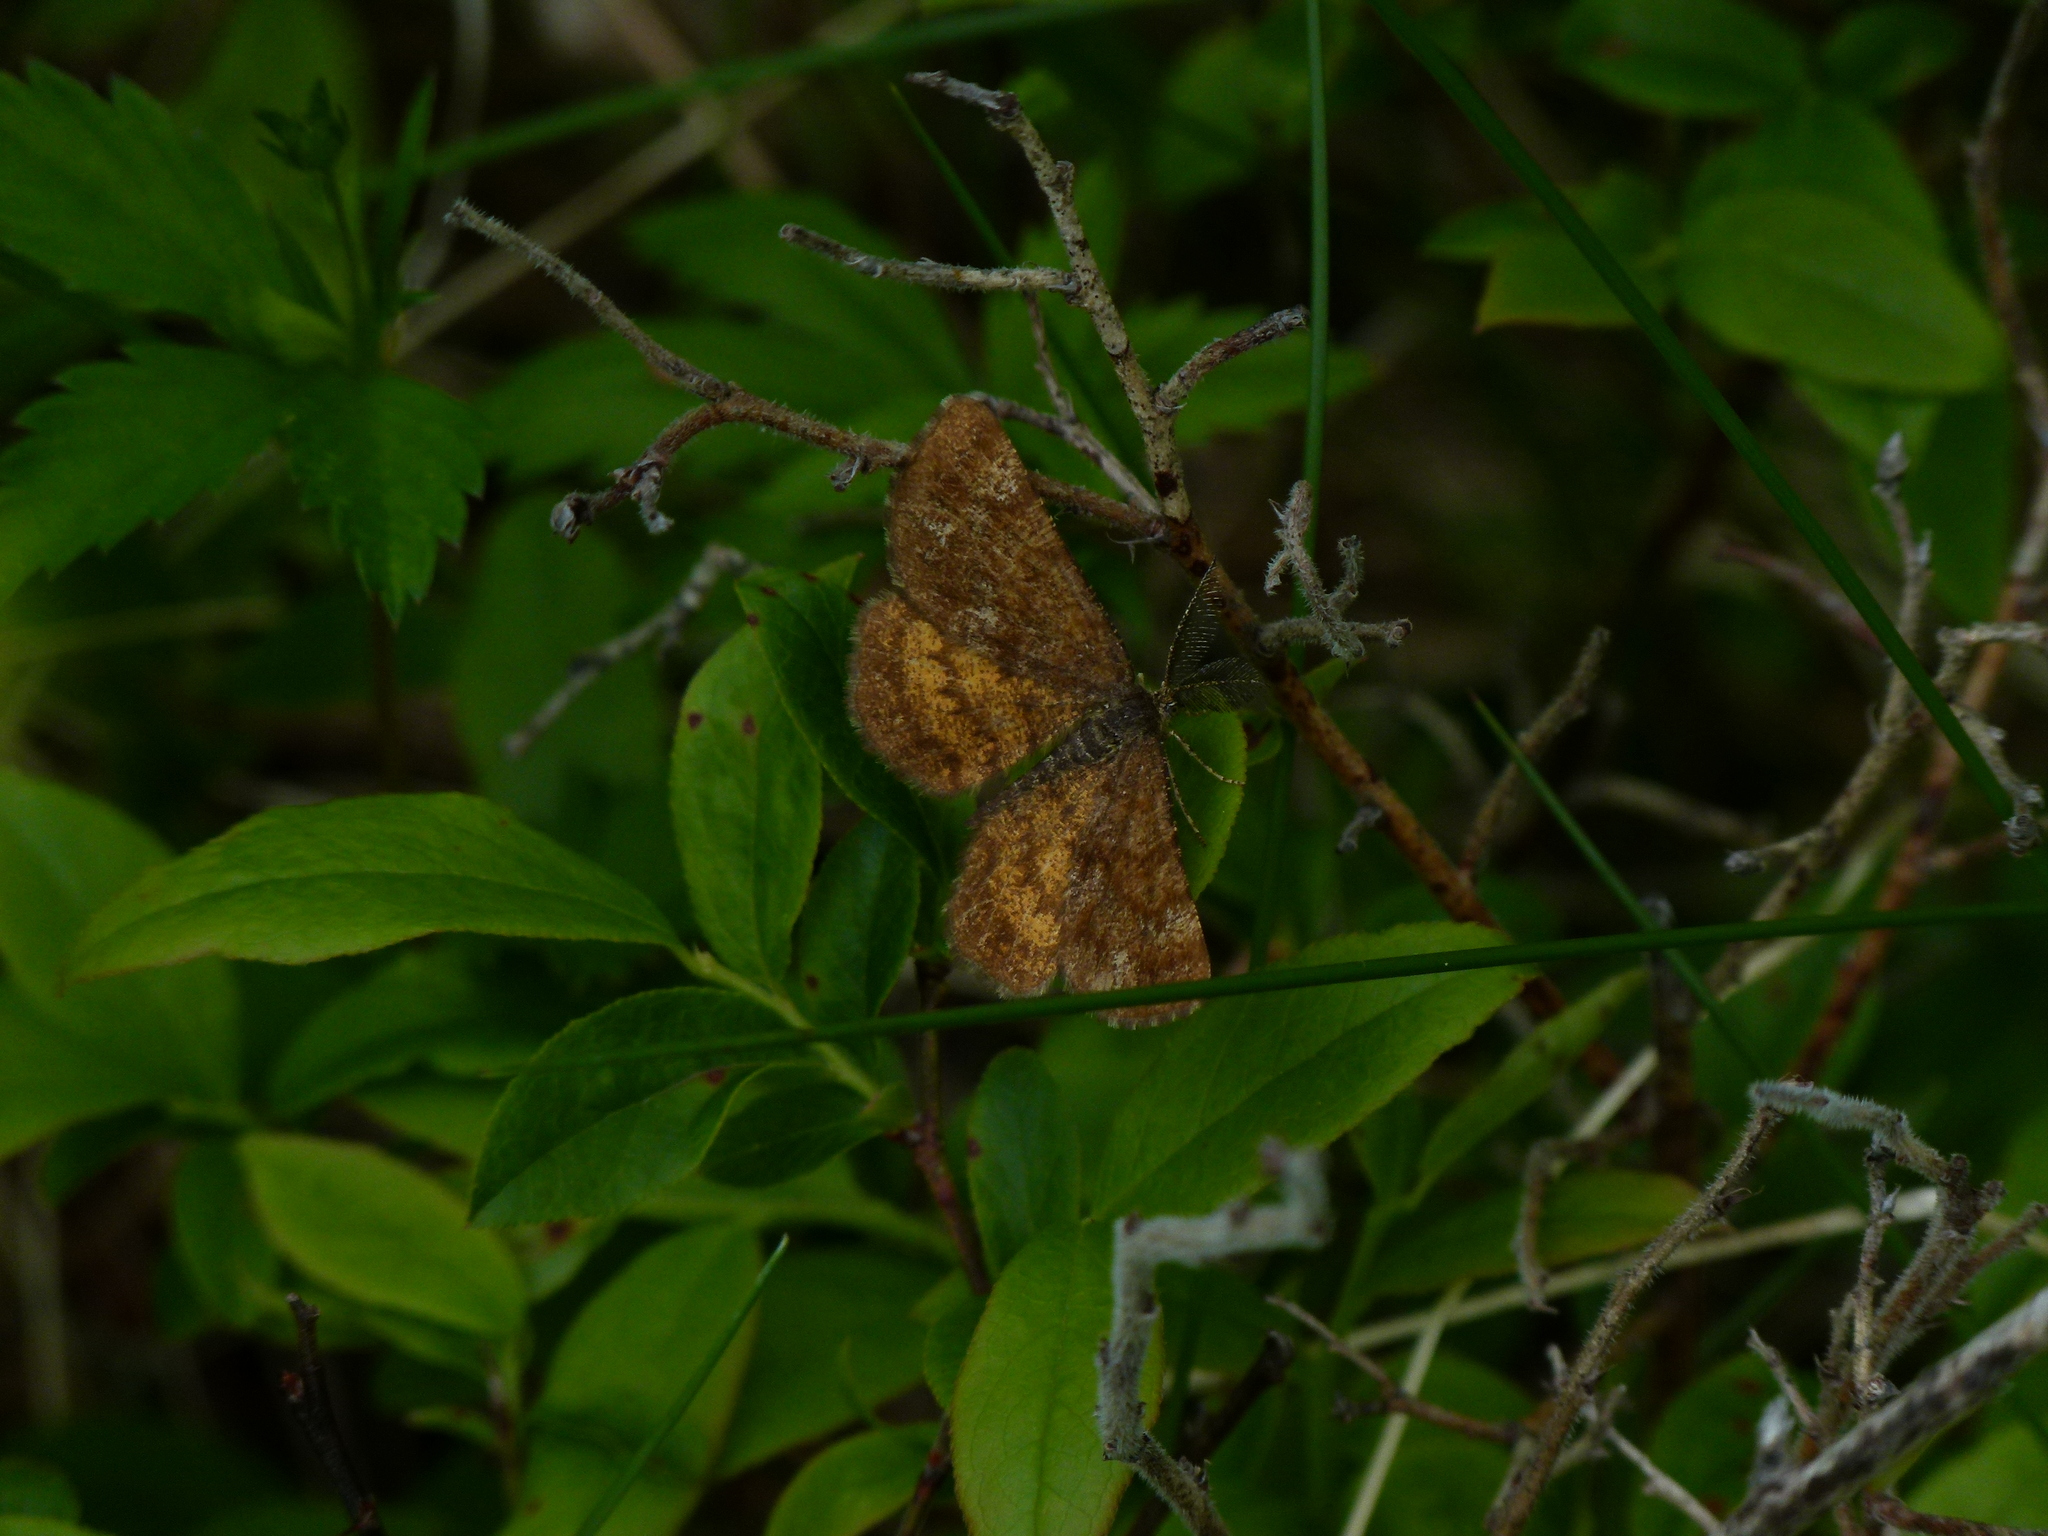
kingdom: Animalia
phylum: Arthropoda
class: Insecta
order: Lepidoptera
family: Geometridae
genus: Ematurga
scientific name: Ematurga amitaria
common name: Cranberry spanworm moth
